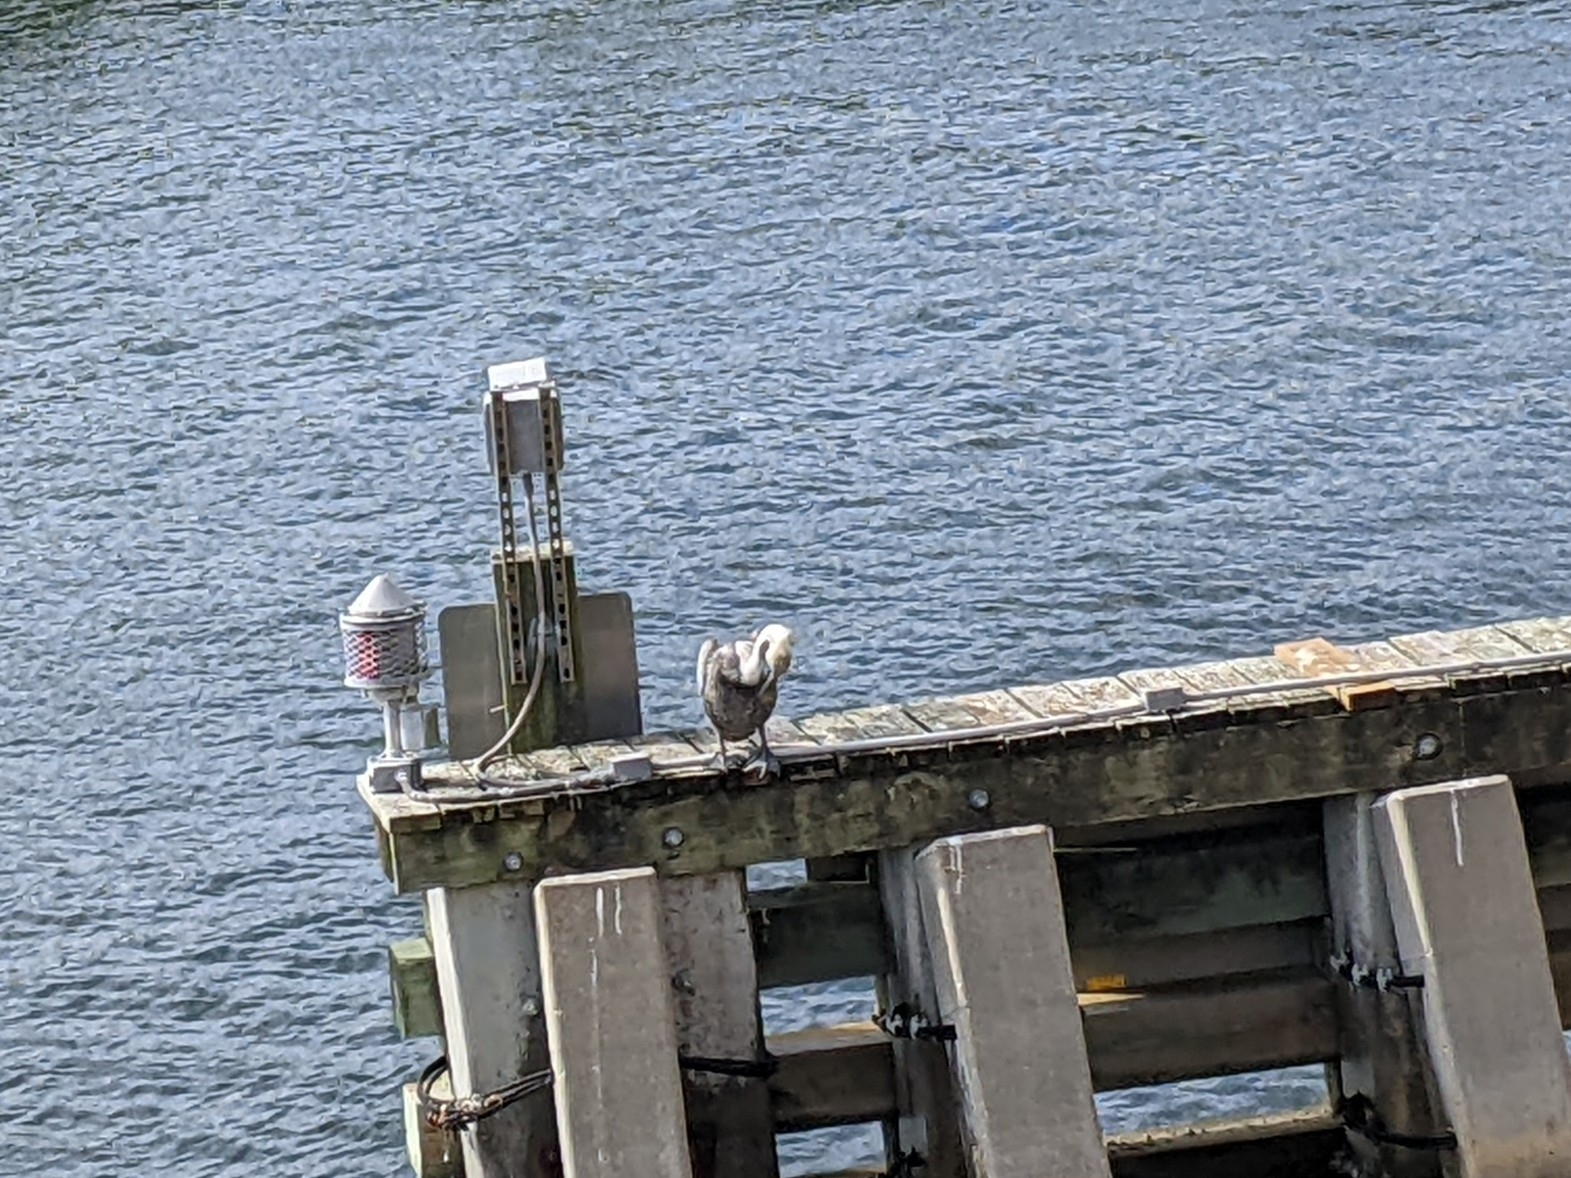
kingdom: Animalia
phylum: Chordata
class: Aves
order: Pelecaniformes
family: Pelecanidae
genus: Pelecanus
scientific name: Pelecanus occidentalis
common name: Brown pelican
